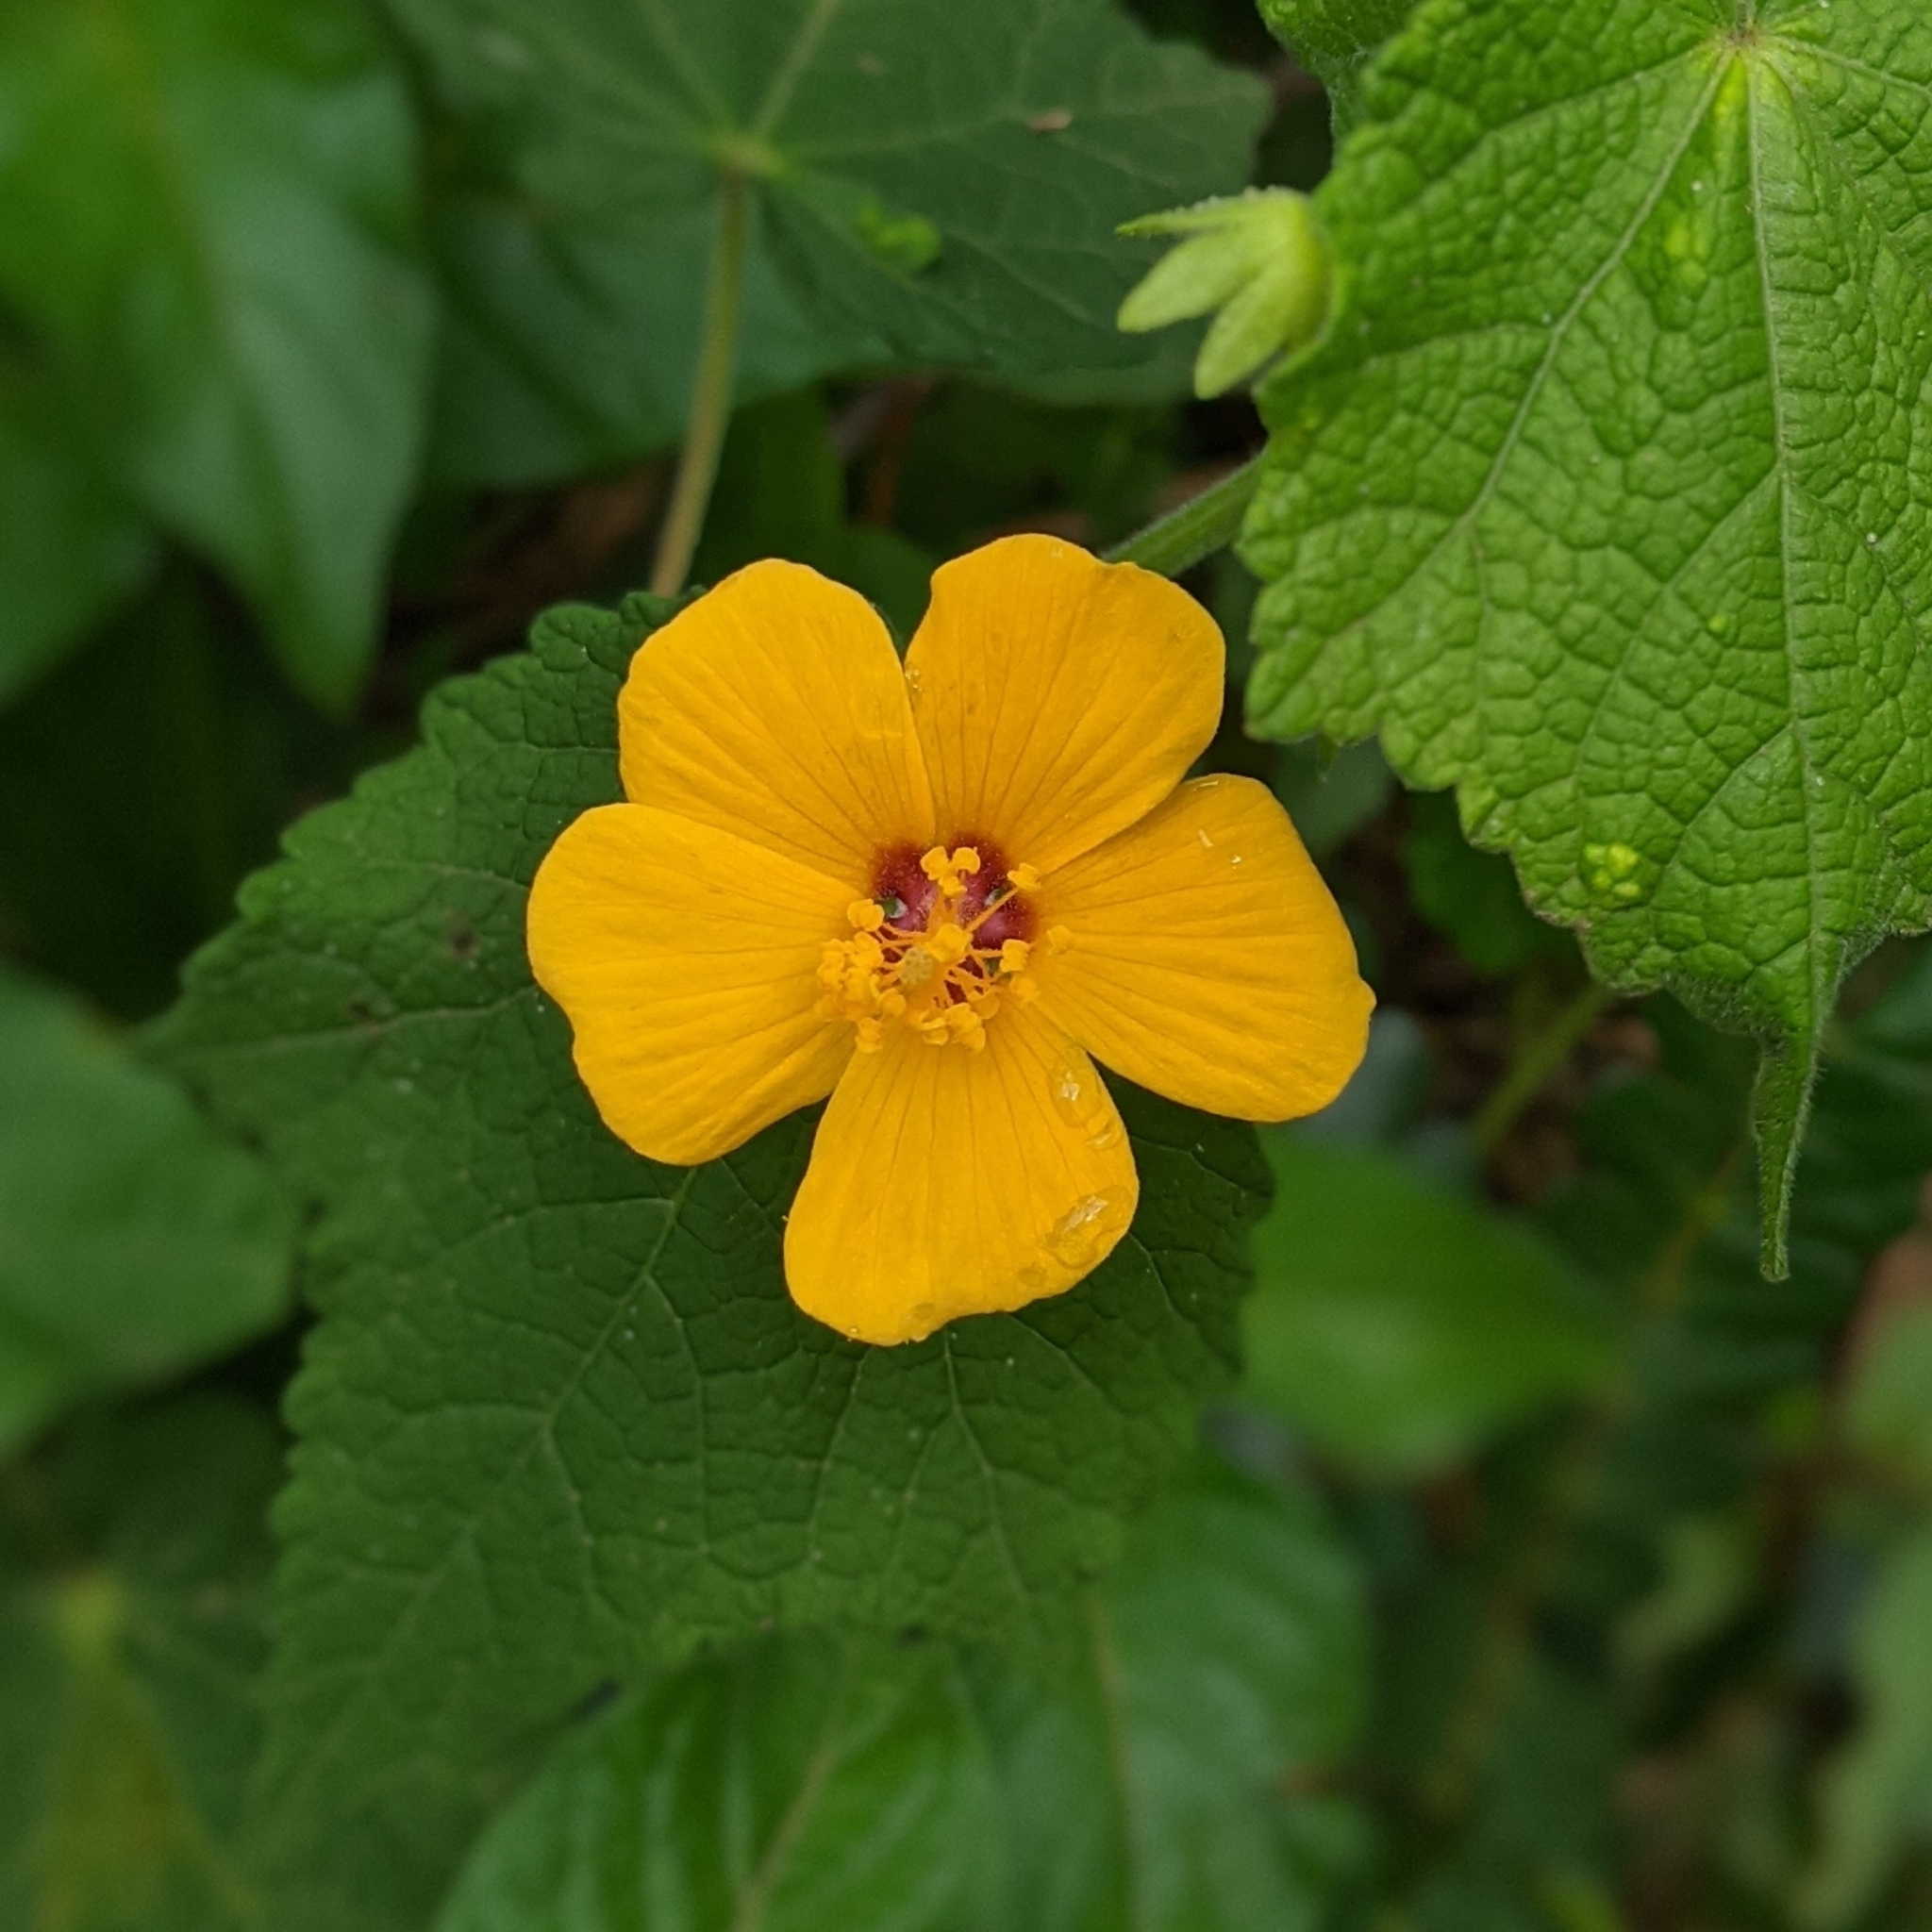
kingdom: Plantae
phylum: Tracheophyta
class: Magnoliopsida
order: Malvales
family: Malvaceae
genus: Pavonia
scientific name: Pavonia burchellii
